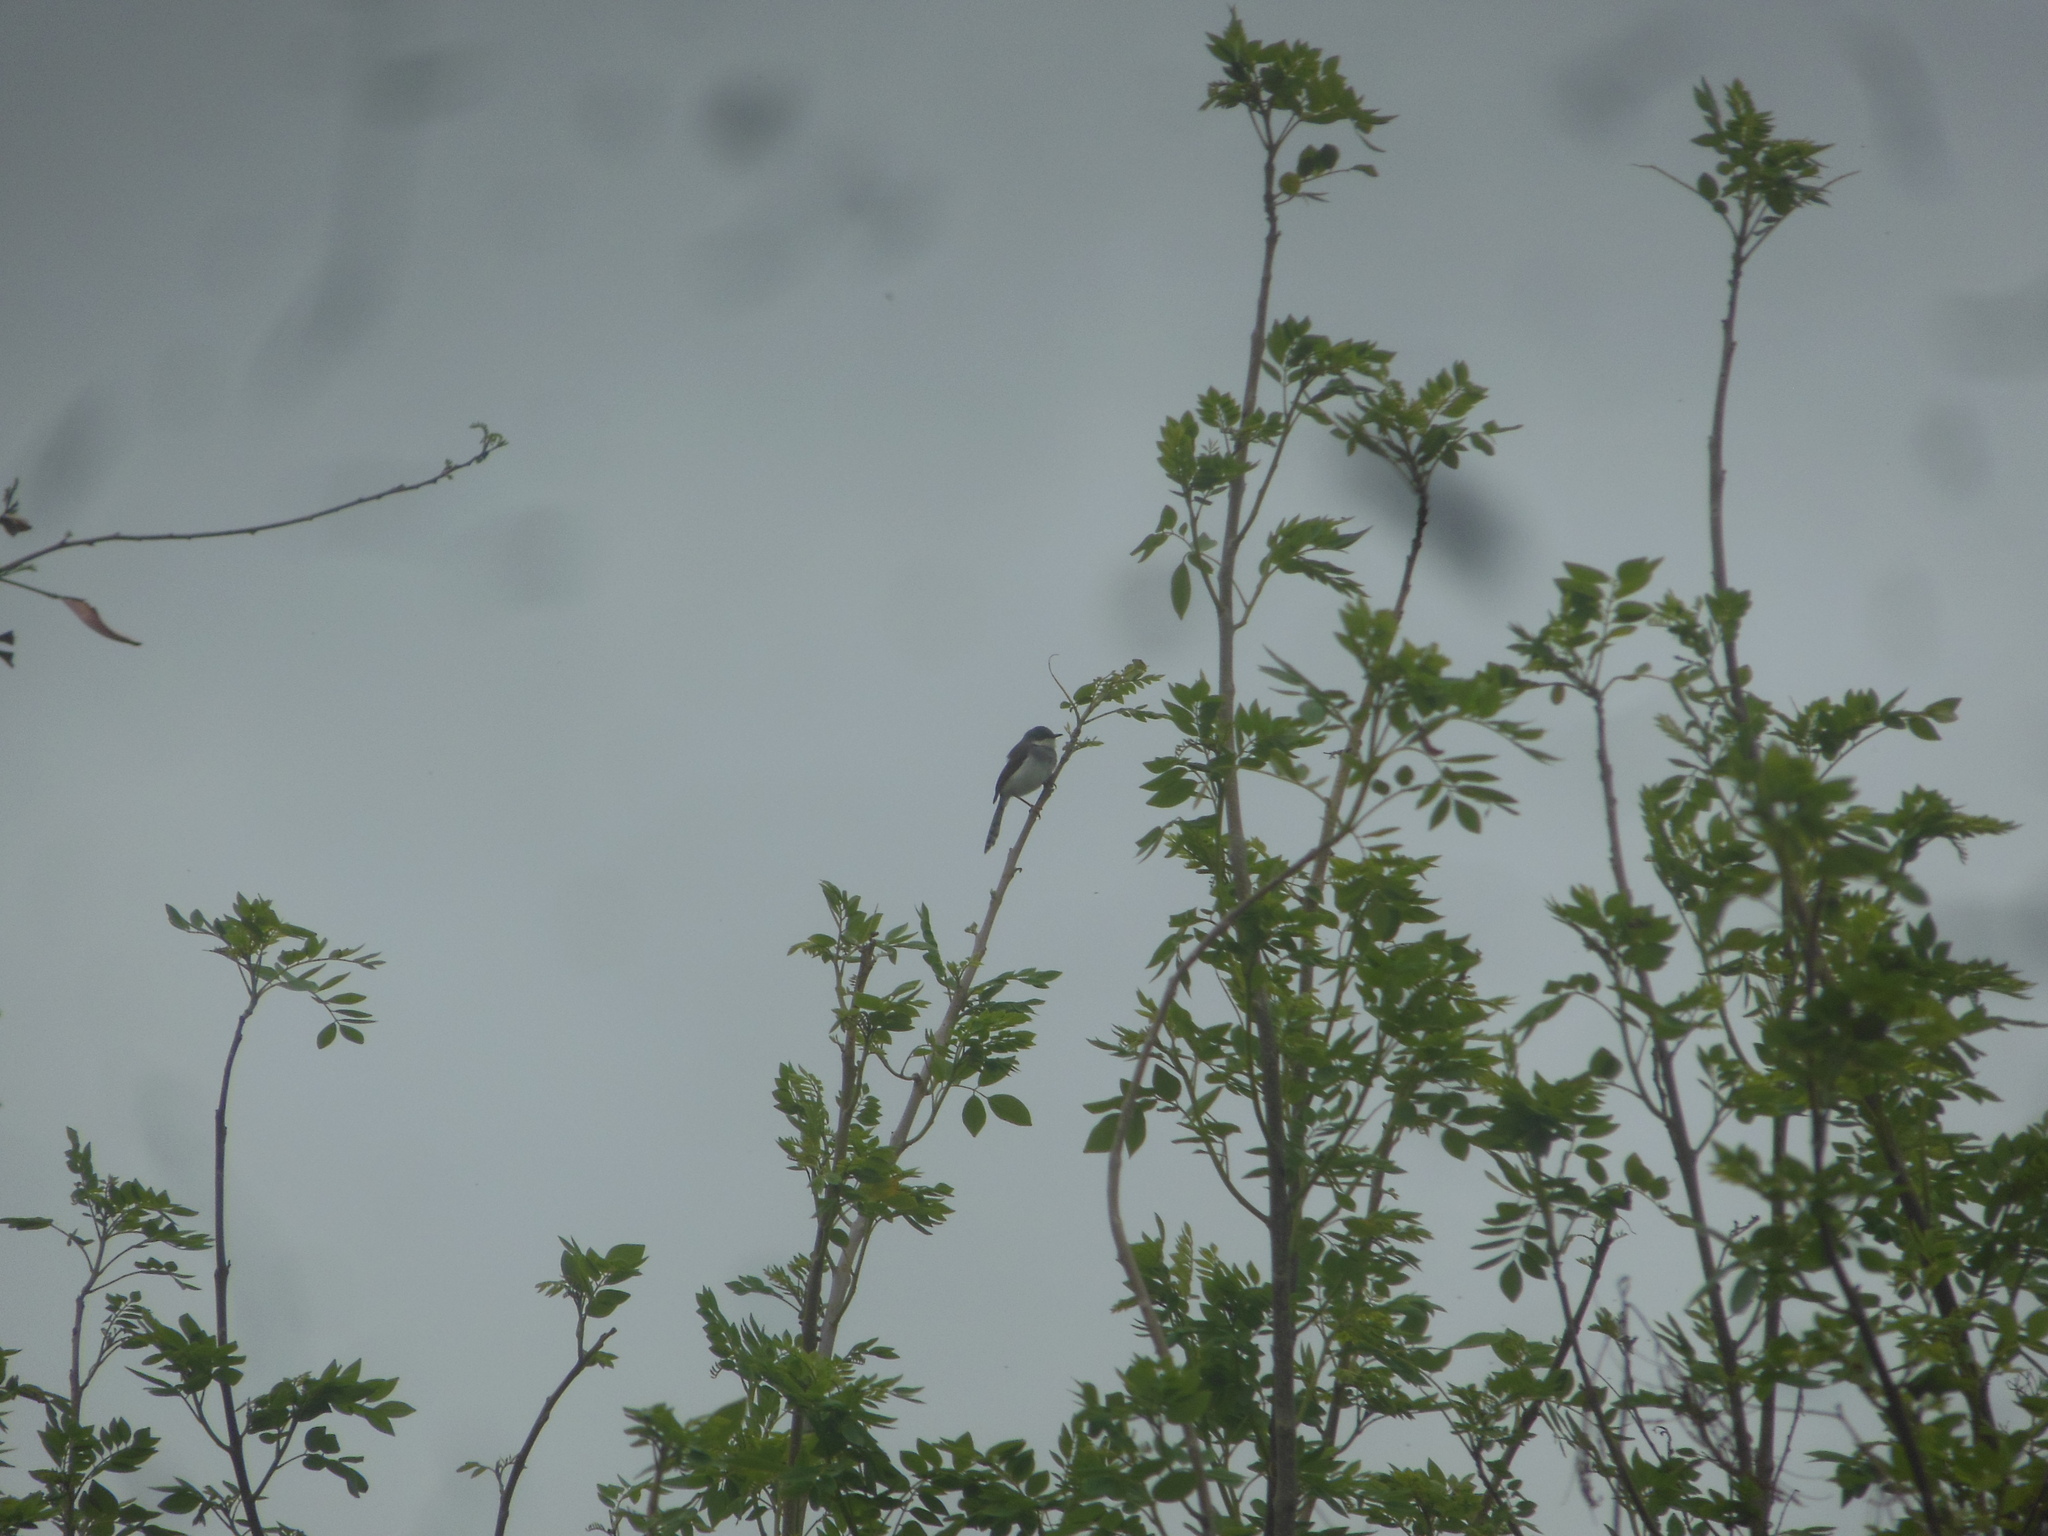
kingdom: Animalia
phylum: Chordata
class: Aves
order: Passeriformes
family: Cisticolidae
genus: Prinia
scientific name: Prinia hodgsonii
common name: Grey-breasted prinia
